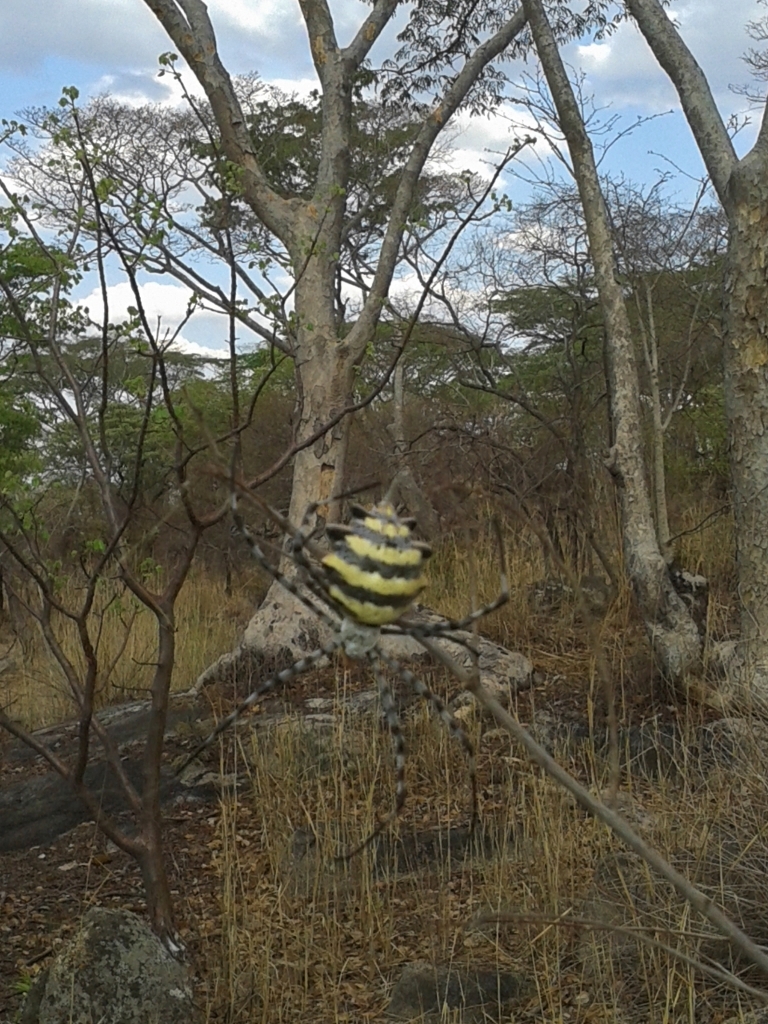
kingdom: Animalia
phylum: Arthropoda
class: Arachnida
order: Araneae
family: Araneidae
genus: Argiope
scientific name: Argiope australis
